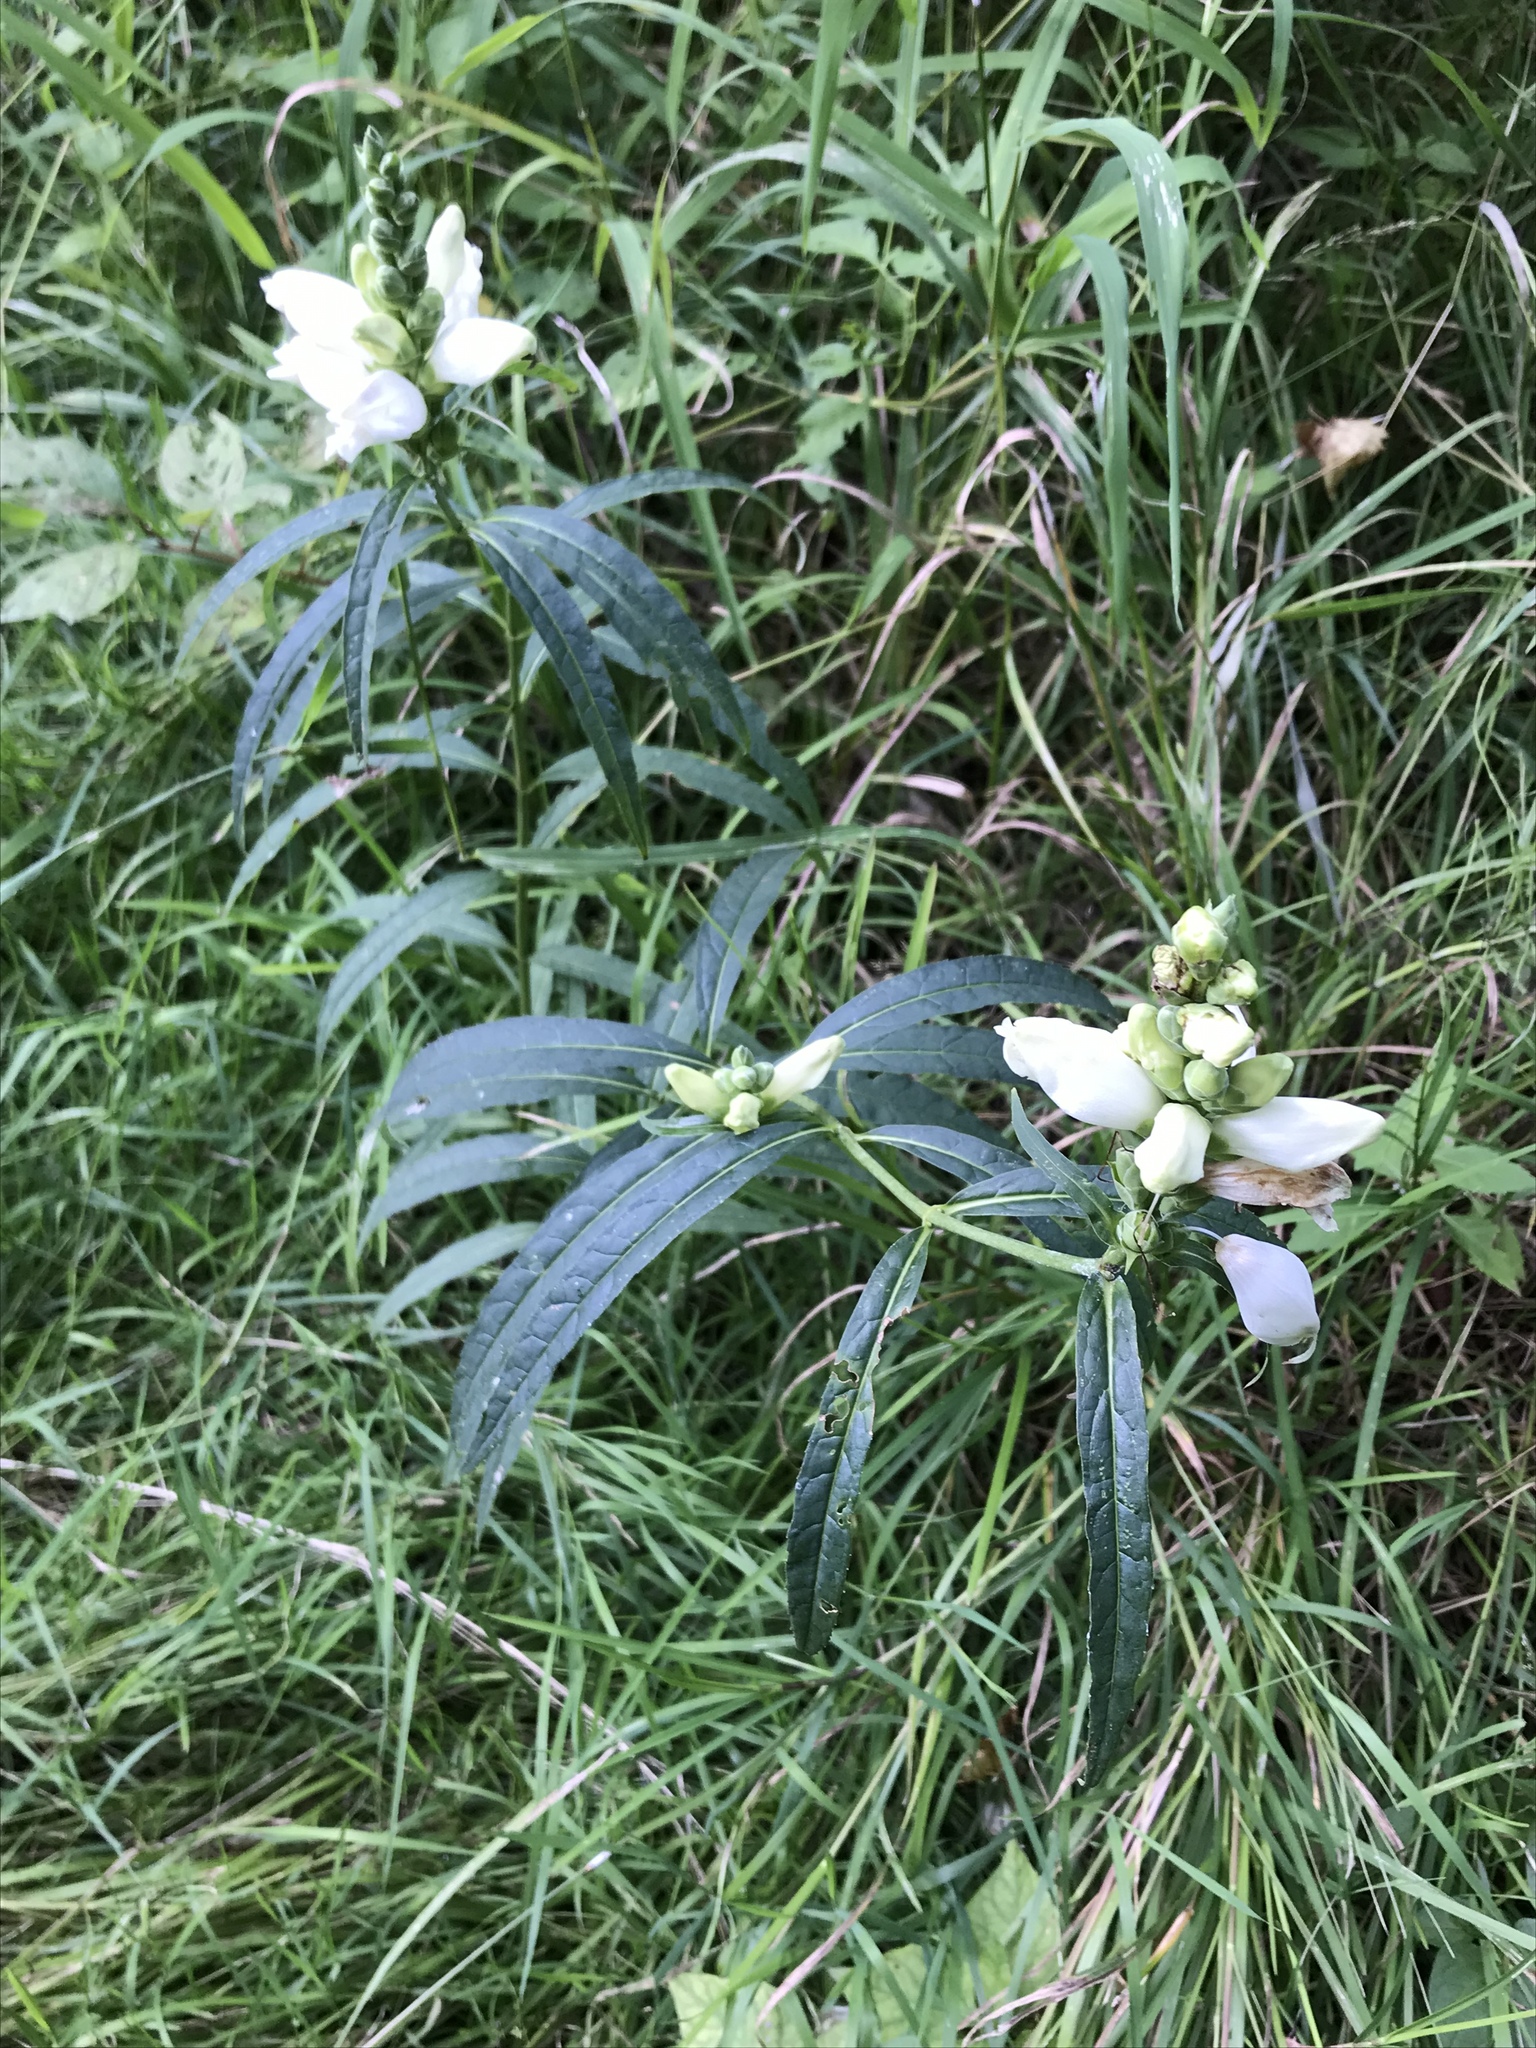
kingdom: Plantae
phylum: Tracheophyta
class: Magnoliopsida
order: Lamiales
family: Plantaginaceae
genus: Chelone
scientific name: Chelone glabra
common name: Snakehead
